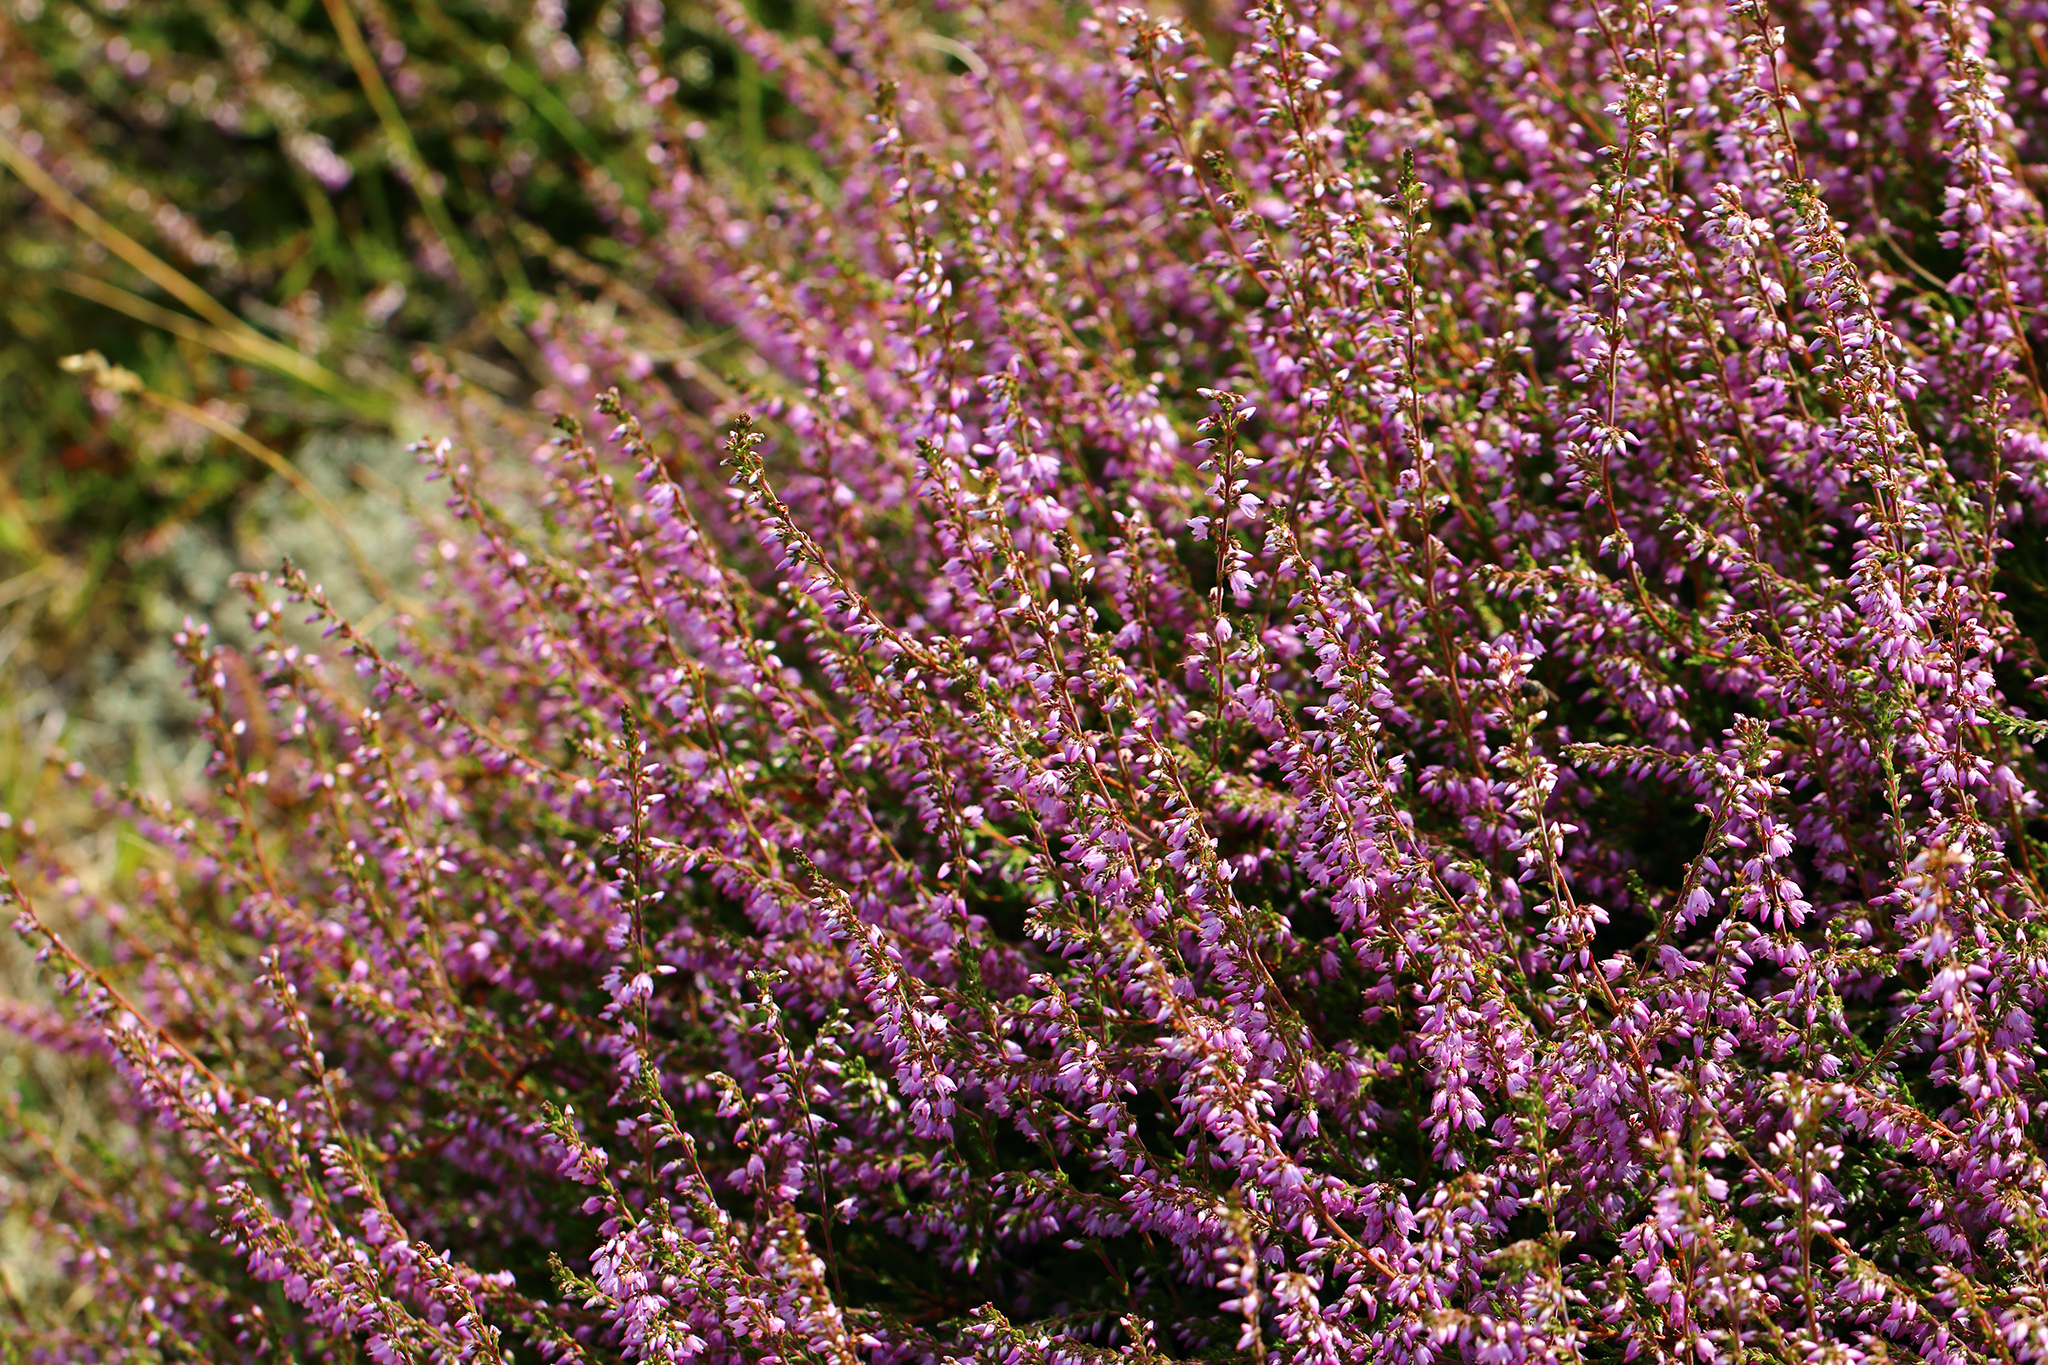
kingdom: Plantae
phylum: Tracheophyta
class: Magnoliopsida
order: Ericales
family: Ericaceae
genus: Calluna
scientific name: Calluna vulgaris
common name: Heather
